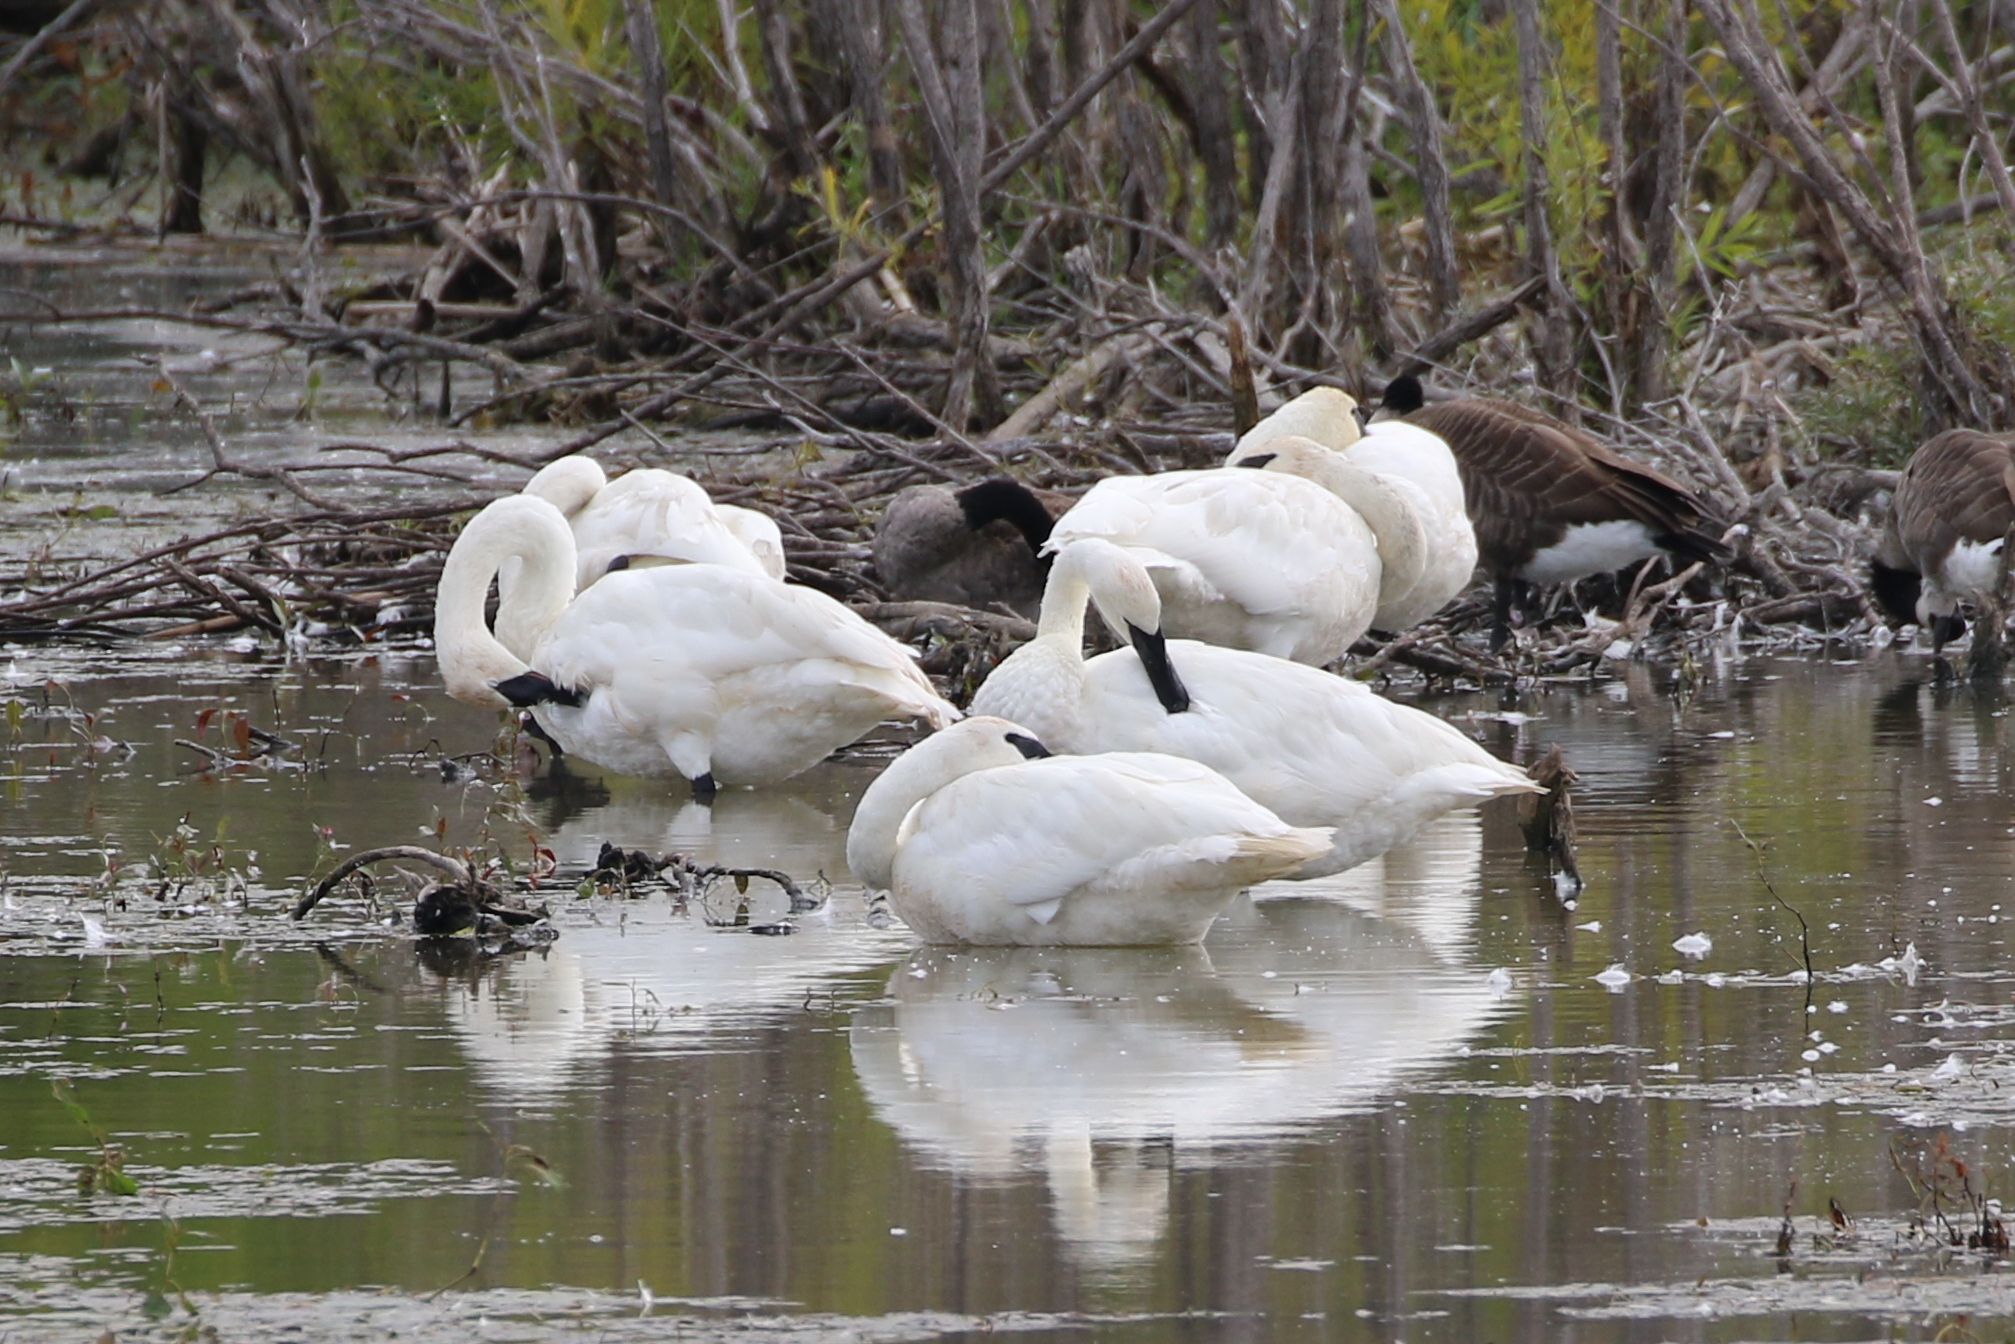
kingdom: Animalia
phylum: Chordata
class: Aves
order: Anseriformes
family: Anatidae
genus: Cygnus
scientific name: Cygnus buccinator
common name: Trumpeter swan
